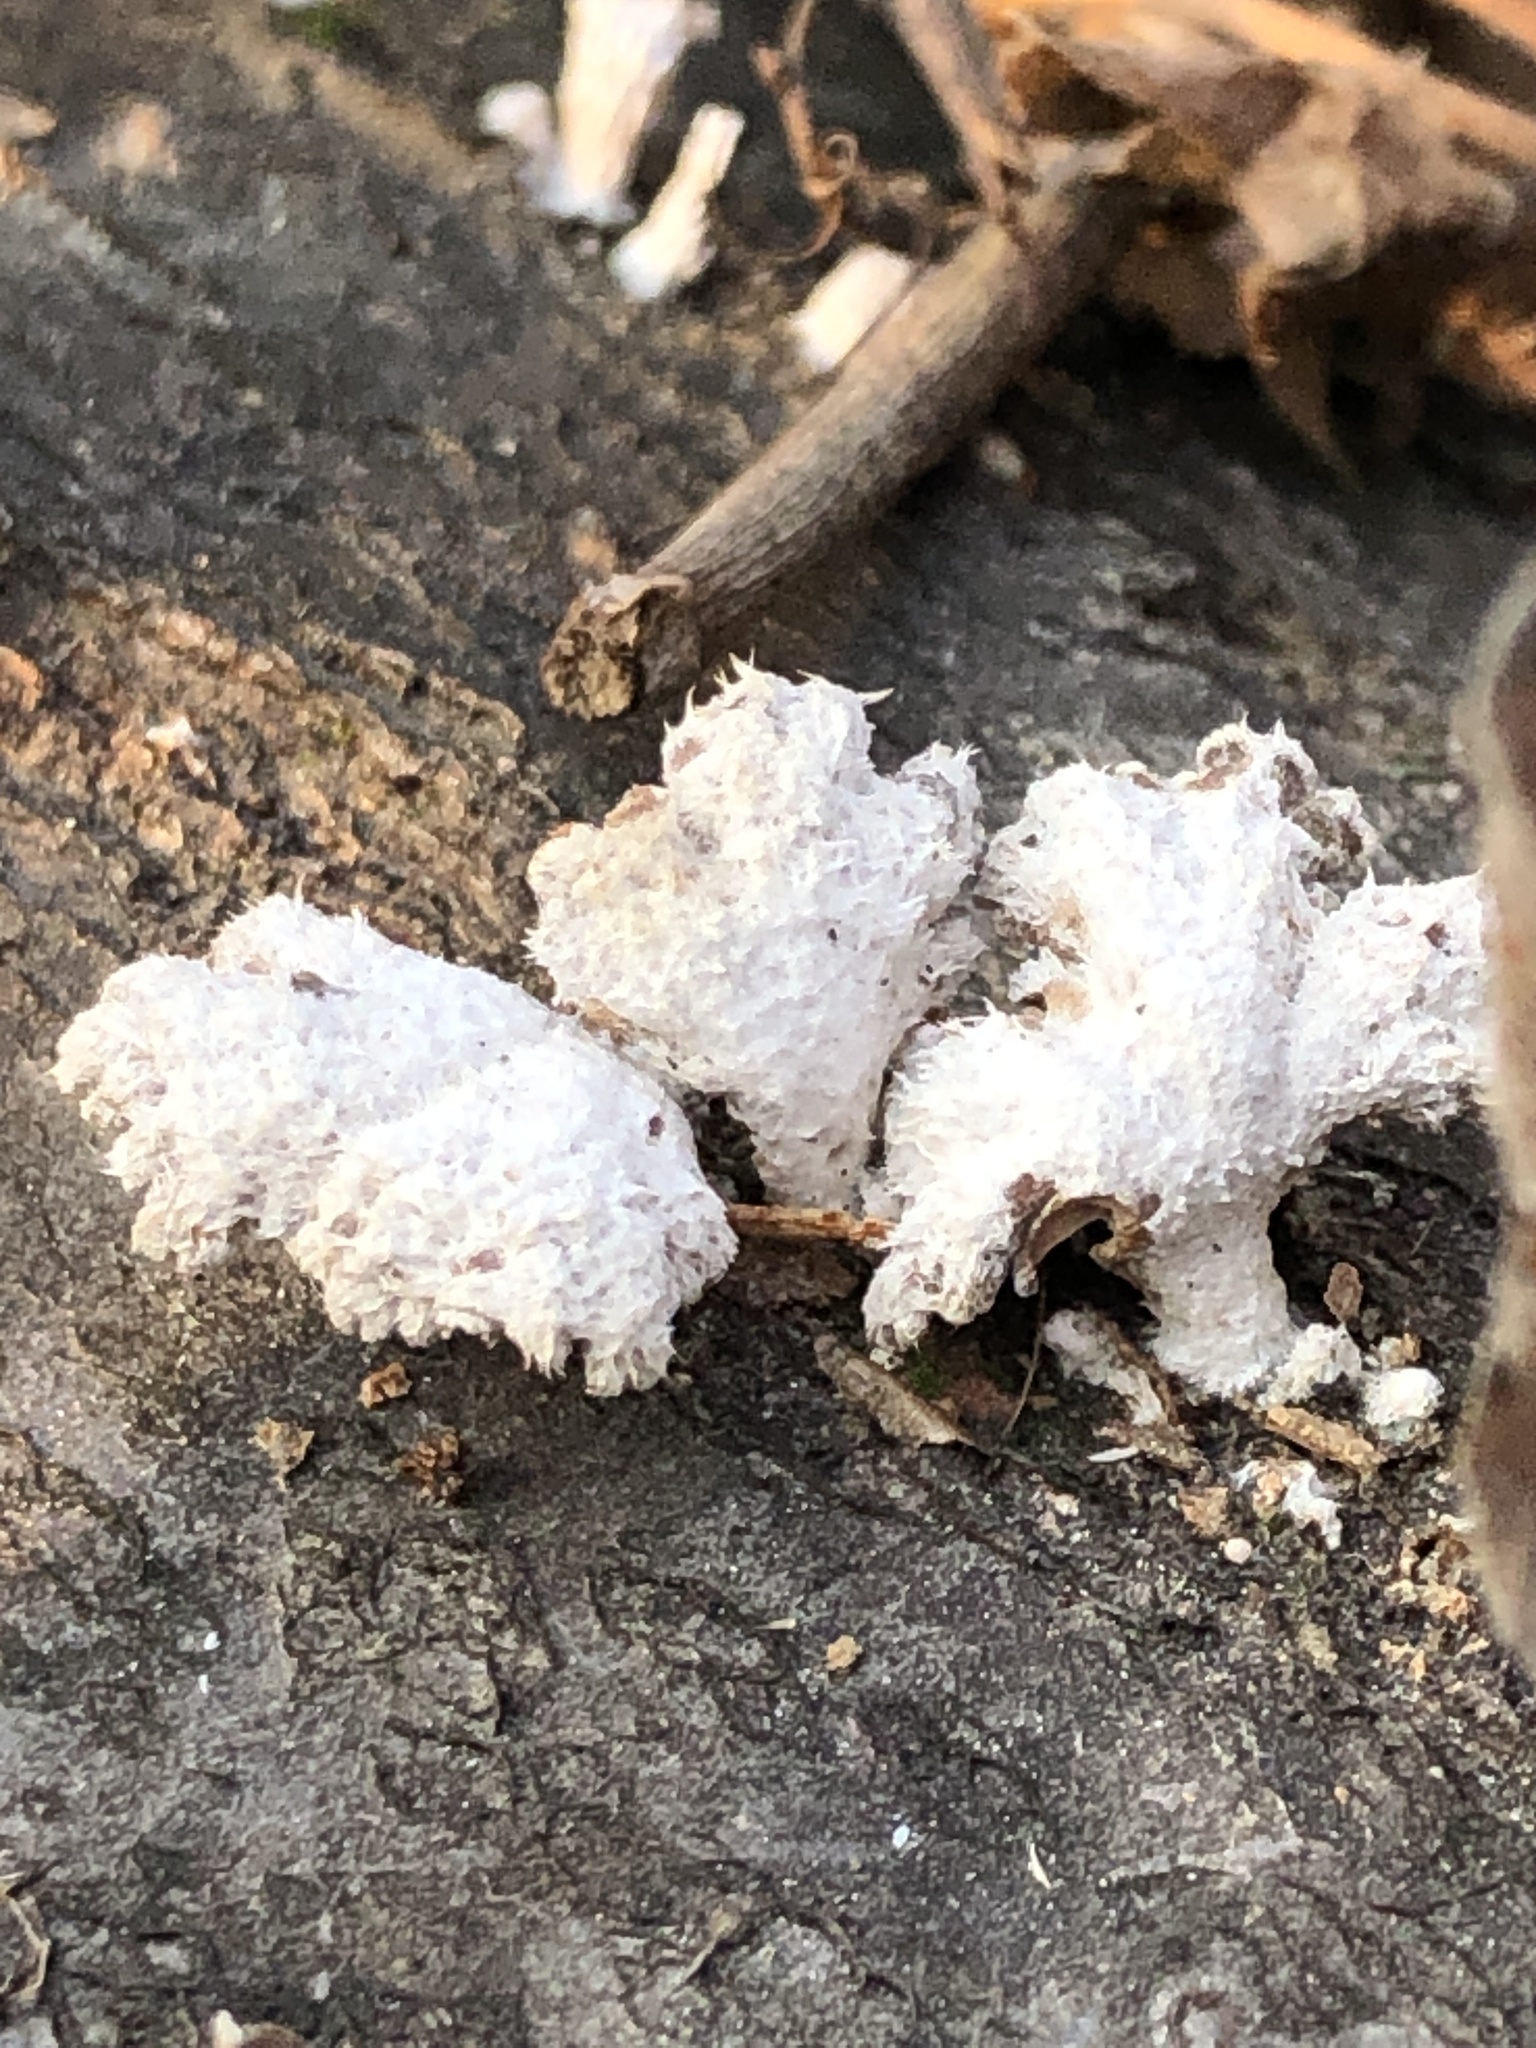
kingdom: Fungi
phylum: Basidiomycota
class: Agaricomycetes
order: Agaricales
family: Schizophyllaceae
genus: Schizophyllum
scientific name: Schizophyllum commune
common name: Common porecrust
